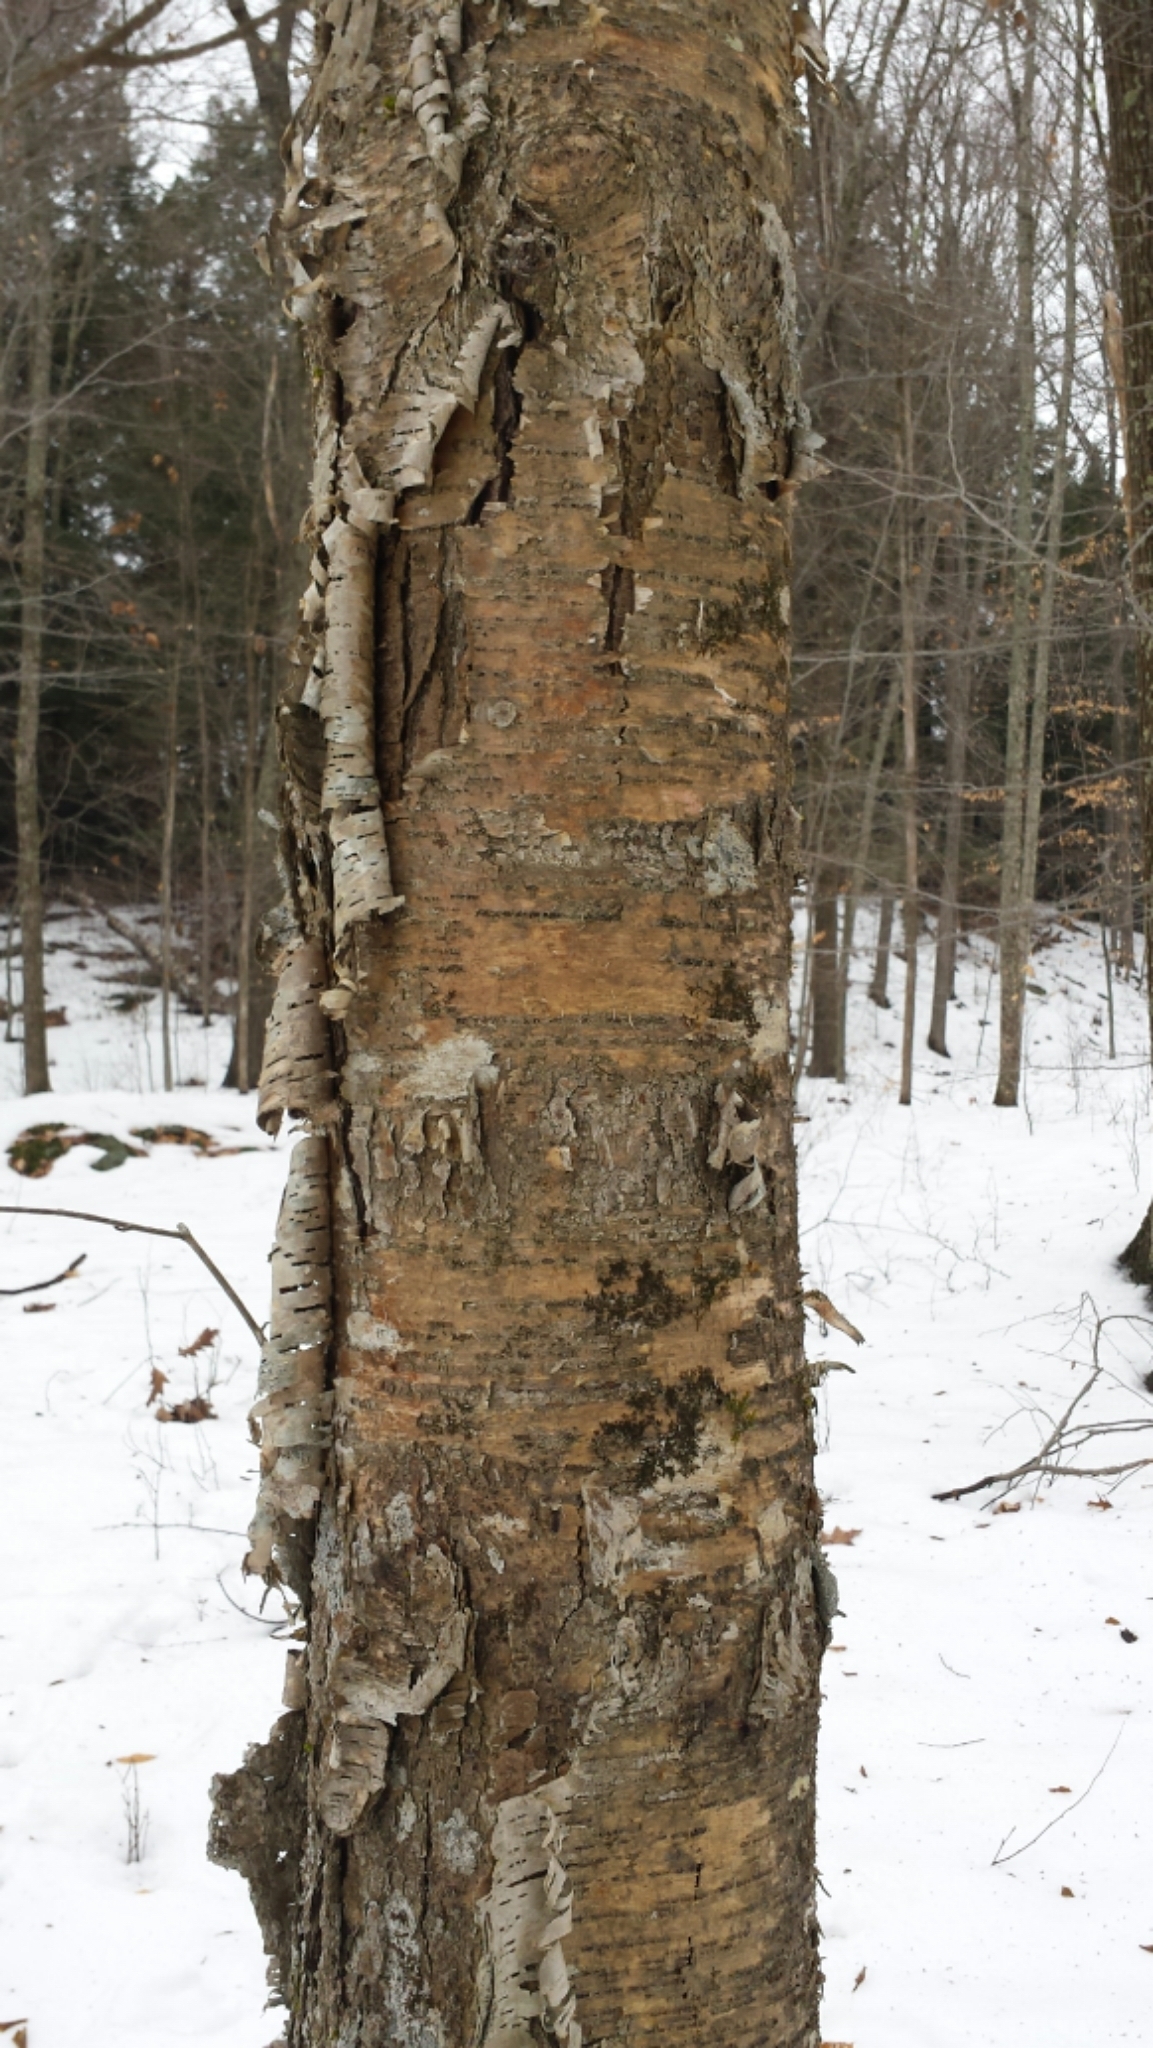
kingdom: Plantae
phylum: Tracheophyta
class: Magnoliopsida
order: Fagales
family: Betulaceae
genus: Betula
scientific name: Betula alleghaniensis
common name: Yellow birch
